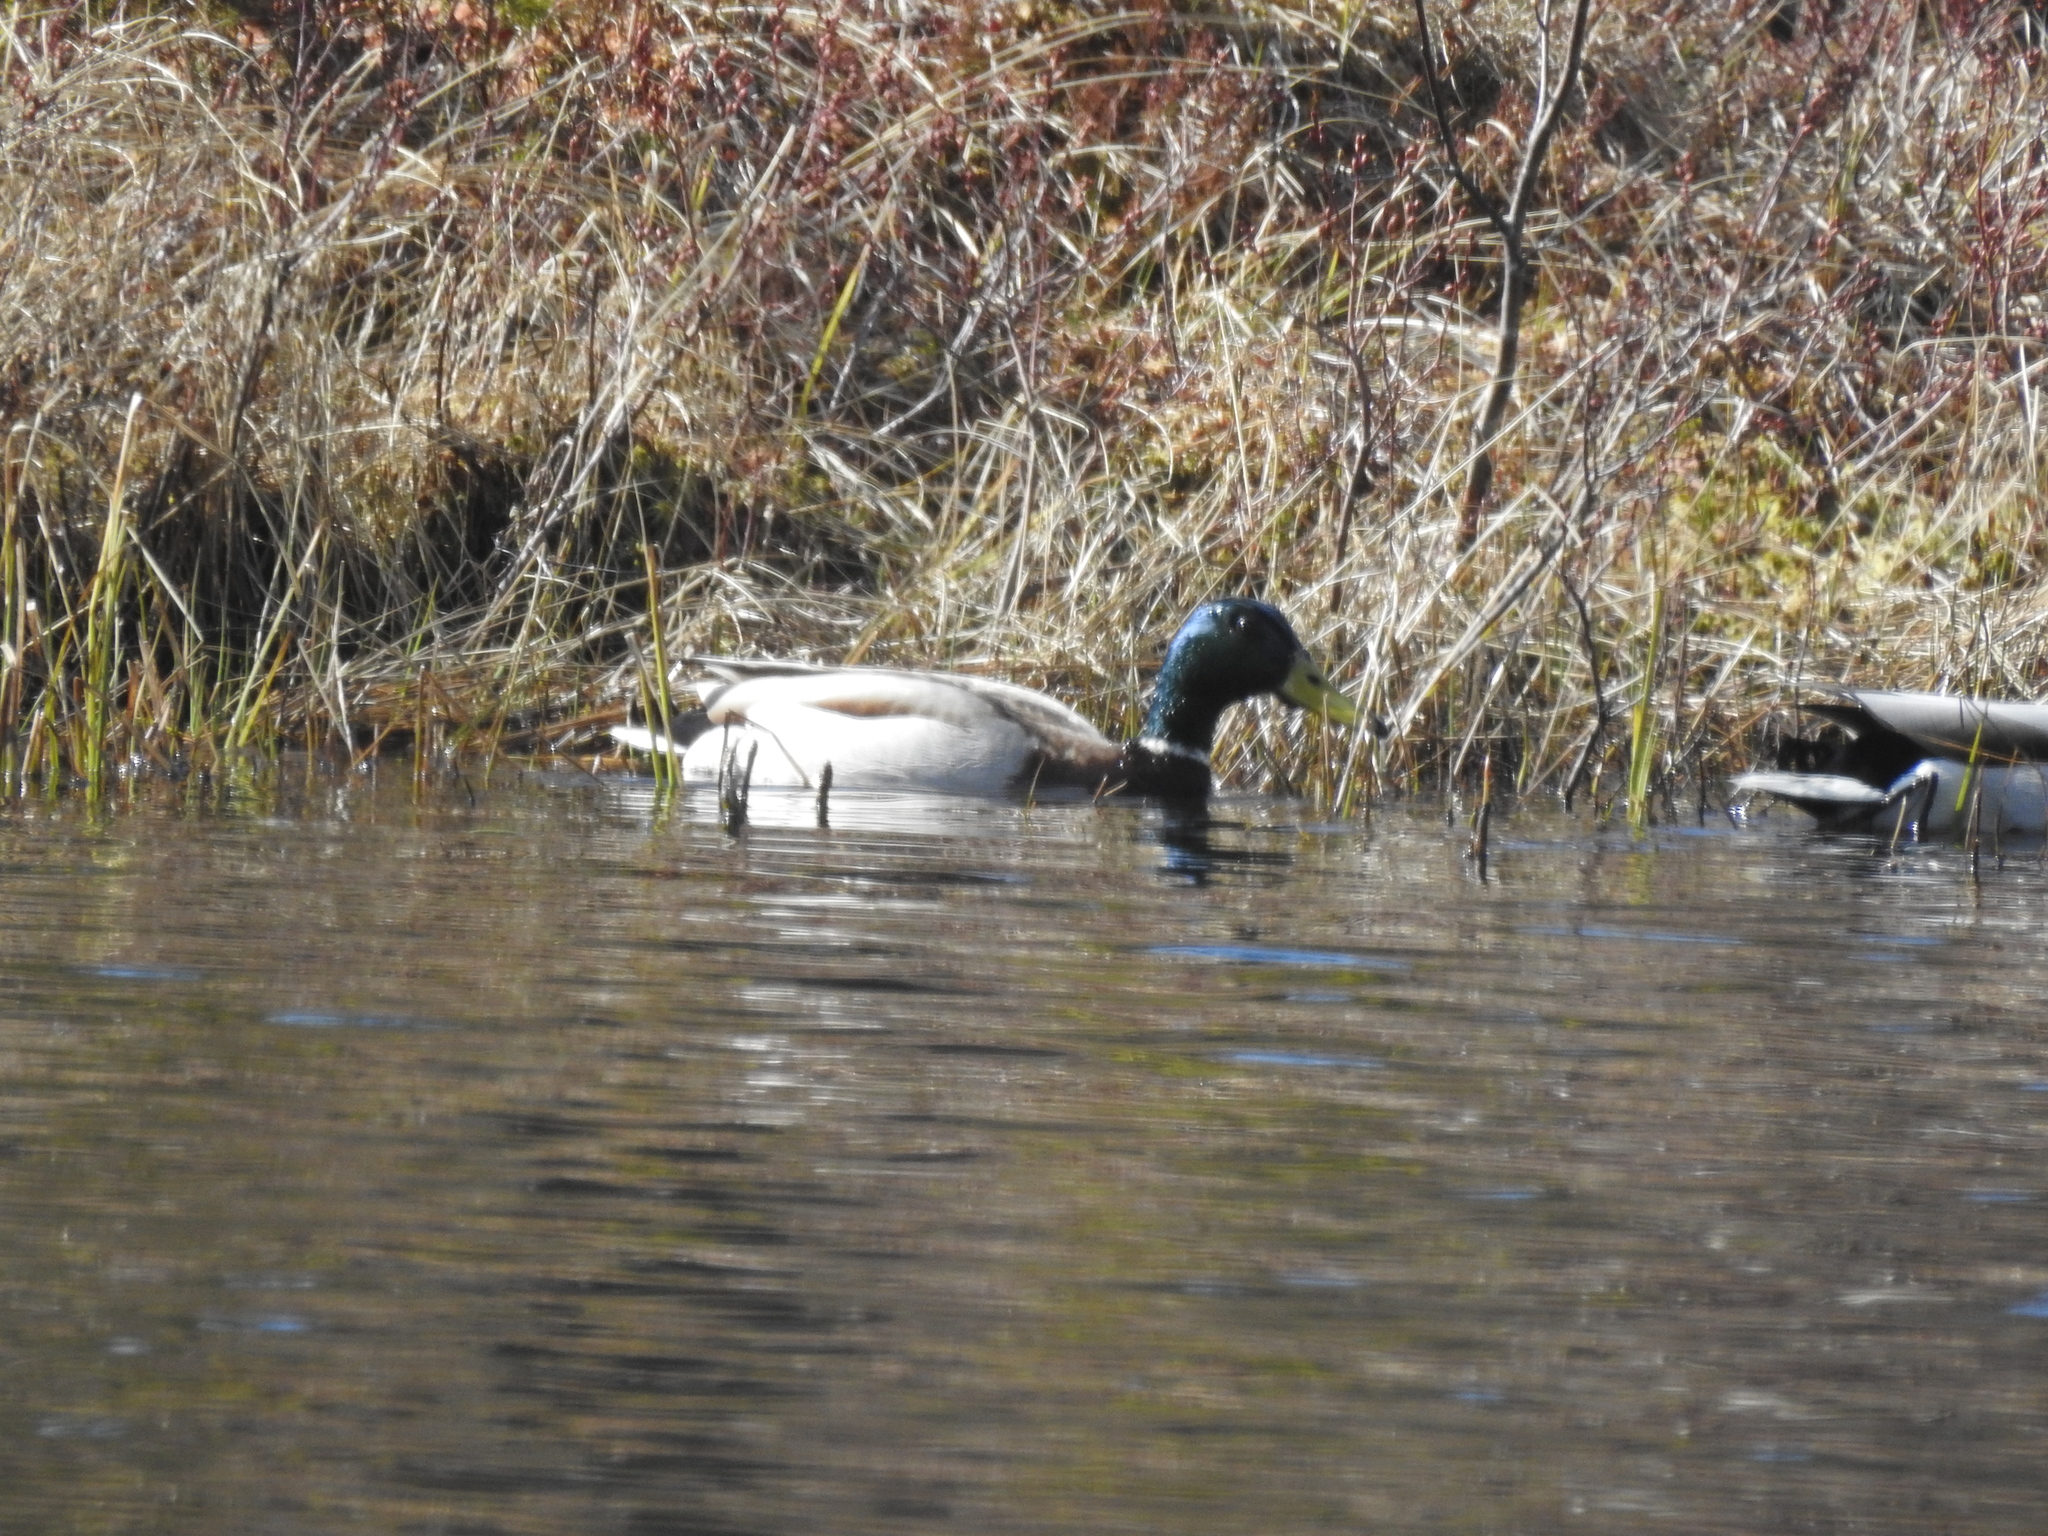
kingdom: Animalia
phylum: Chordata
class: Aves
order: Anseriformes
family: Anatidae
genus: Anas
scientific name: Anas platyrhynchos
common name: Mallard
